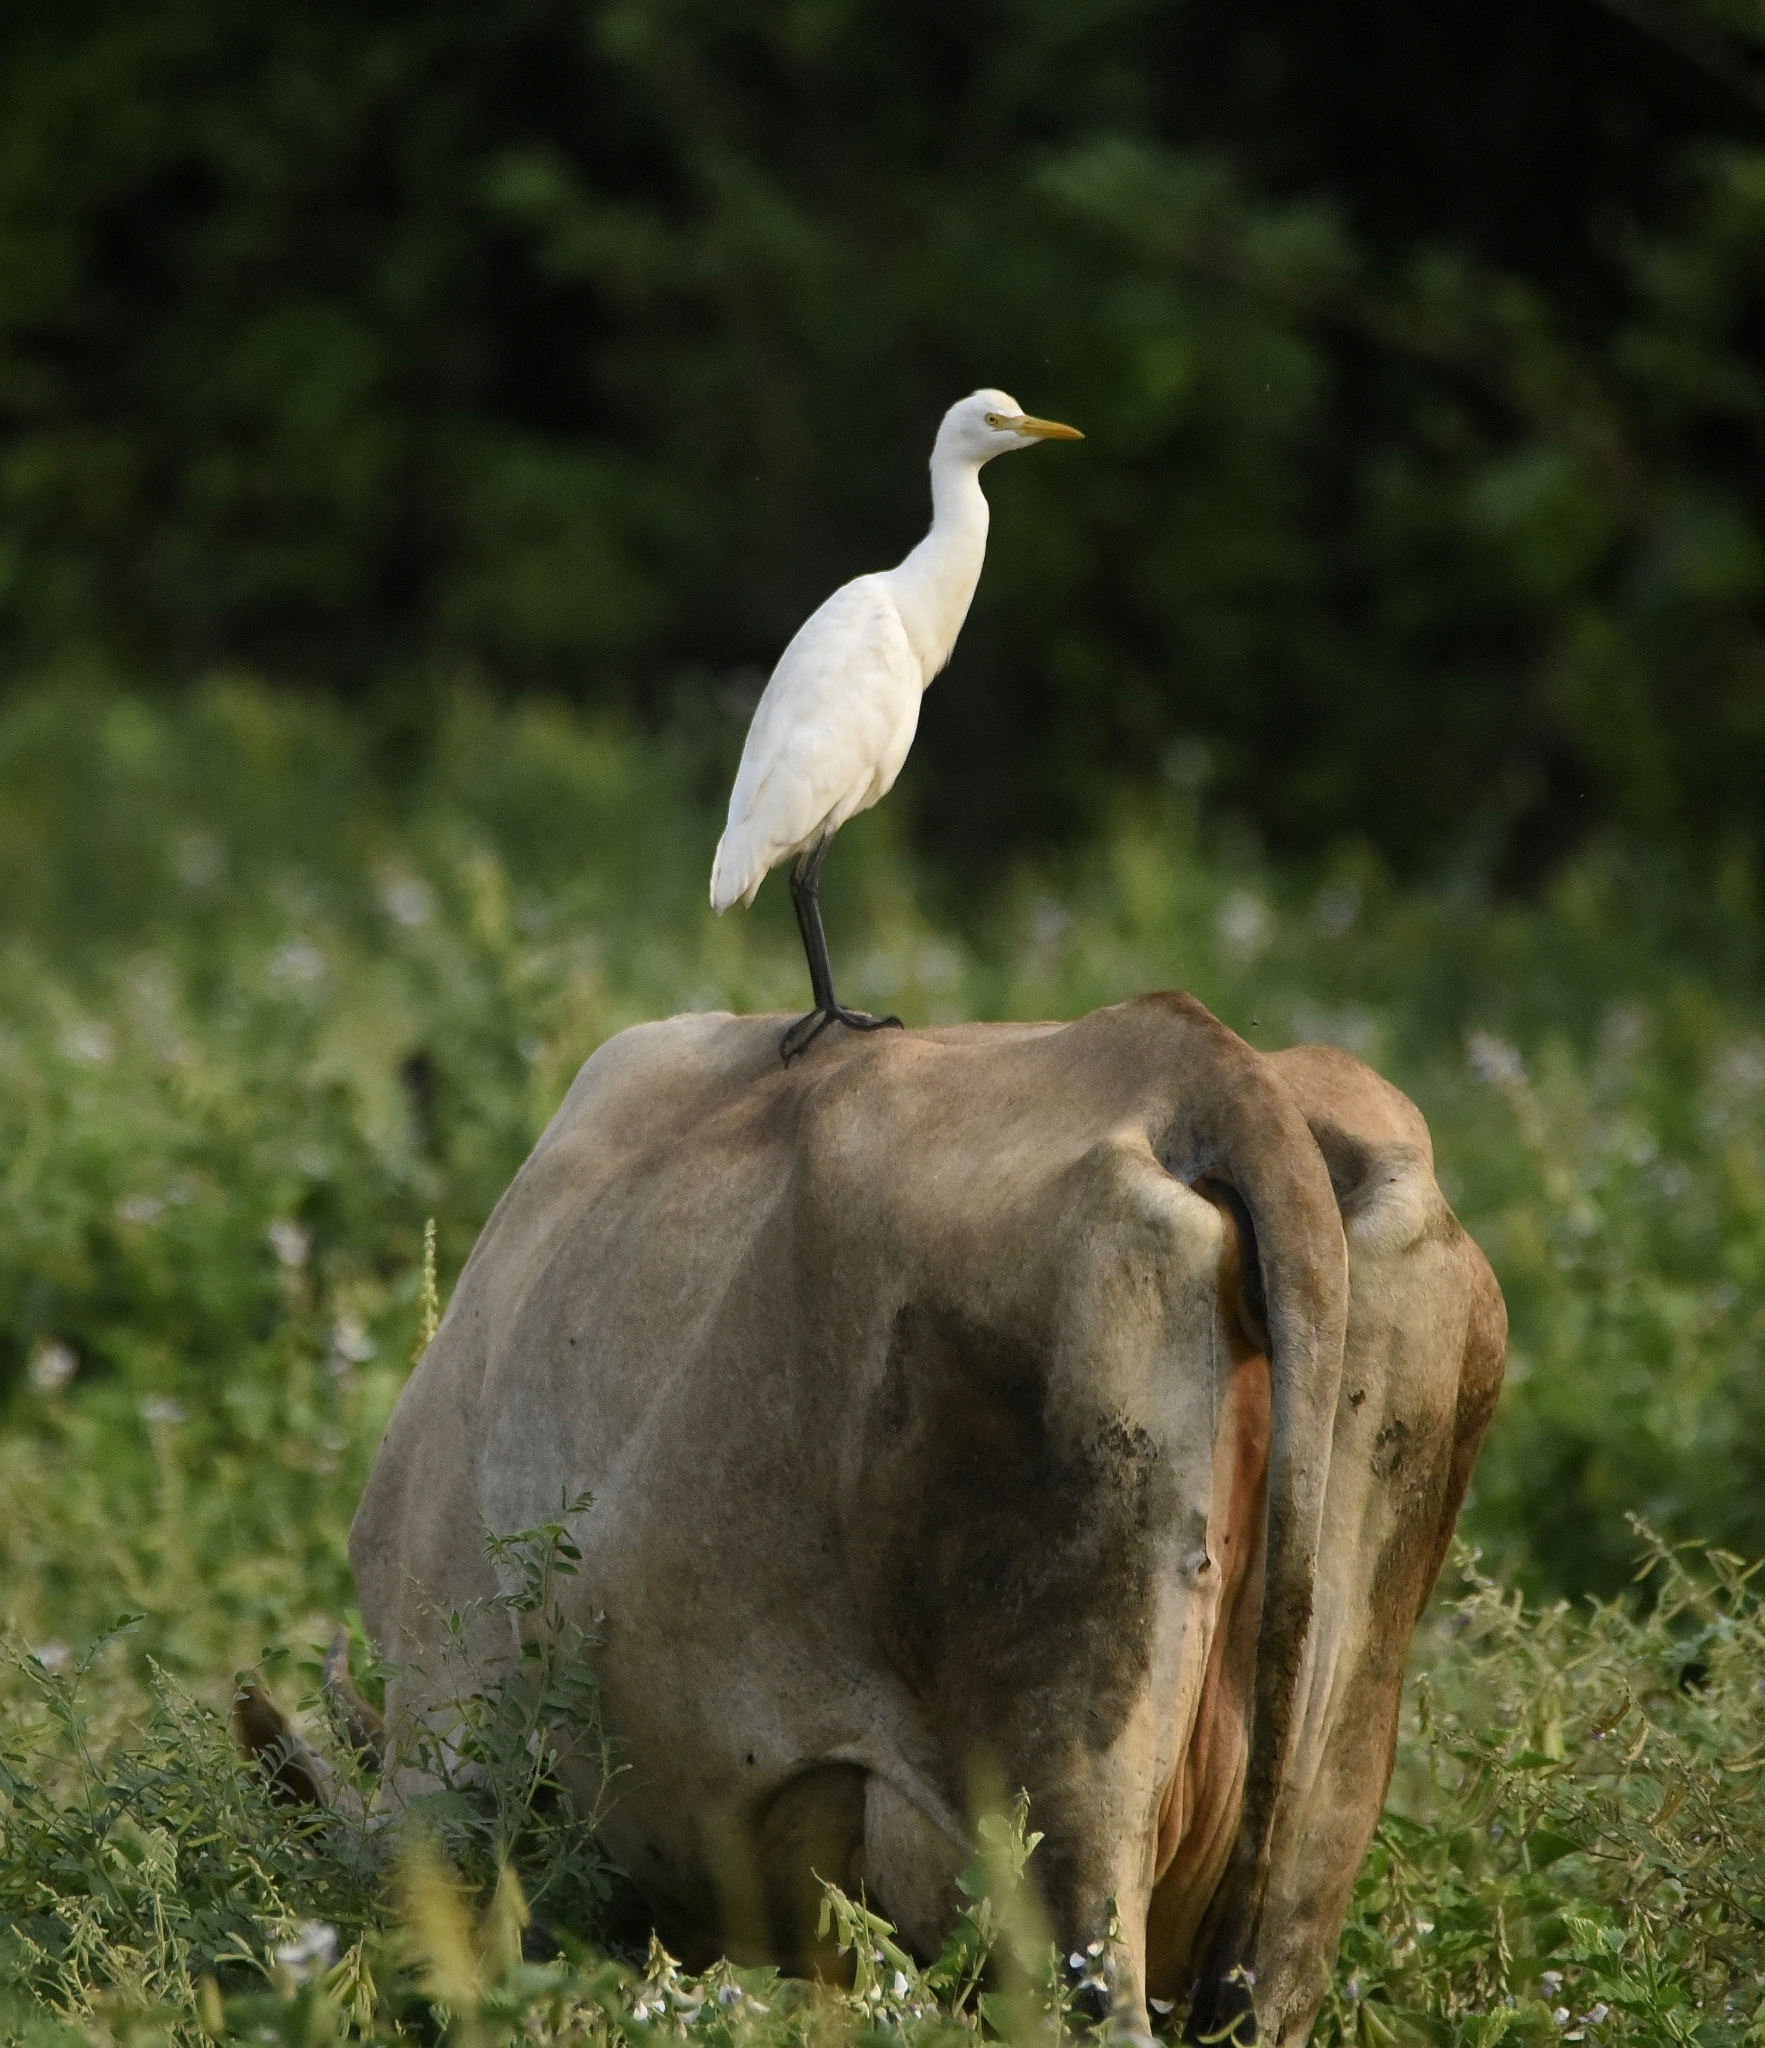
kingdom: Animalia
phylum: Chordata
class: Aves
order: Pelecaniformes
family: Ardeidae
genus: Bubulcus
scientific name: Bubulcus coromandus
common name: Eastern cattle egret
